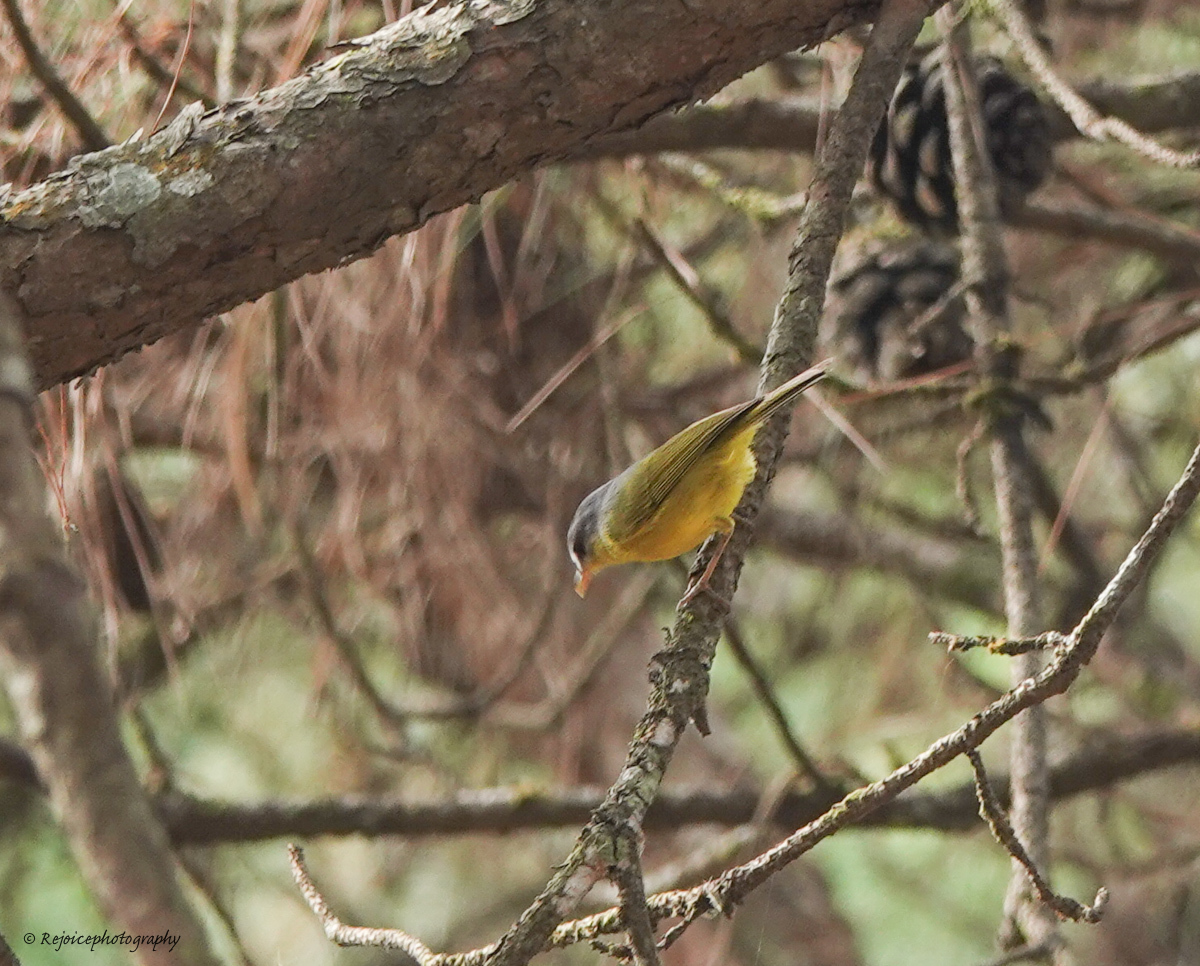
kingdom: Animalia
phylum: Chordata
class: Aves
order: Passeriformes
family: Phylloscopidae
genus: Phylloscopus
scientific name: Phylloscopus xanthoschistos
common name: Grey-hooded warbler
